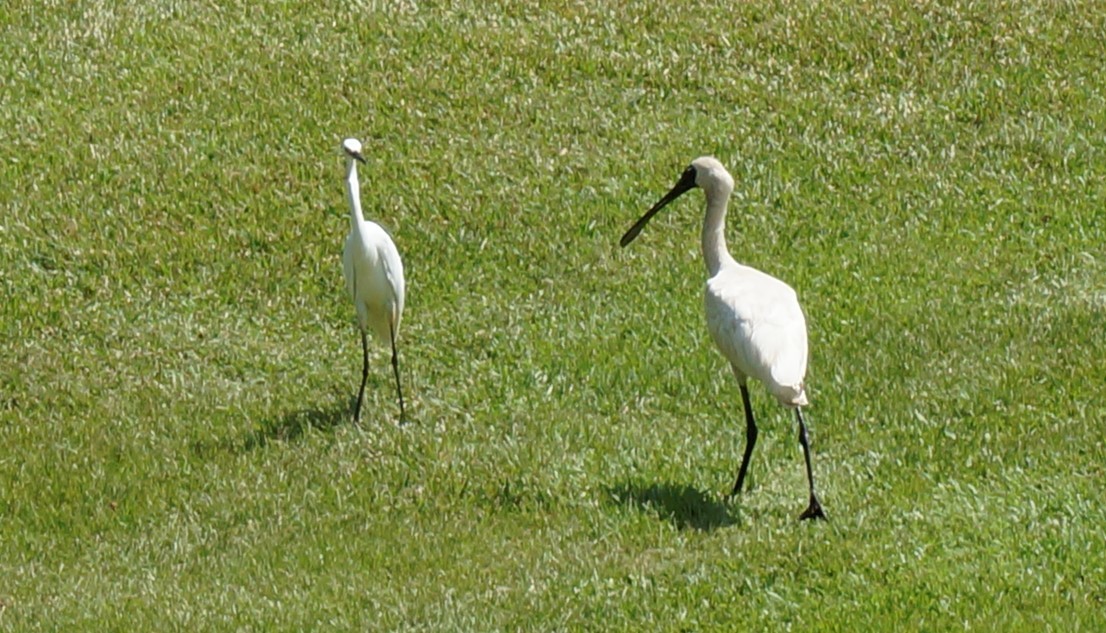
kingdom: Animalia
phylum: Chordata
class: Aves
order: Pelecaniformes
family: Threskiornithidae
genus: Platalea
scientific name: Platalea regia
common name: Royal spoonbill
